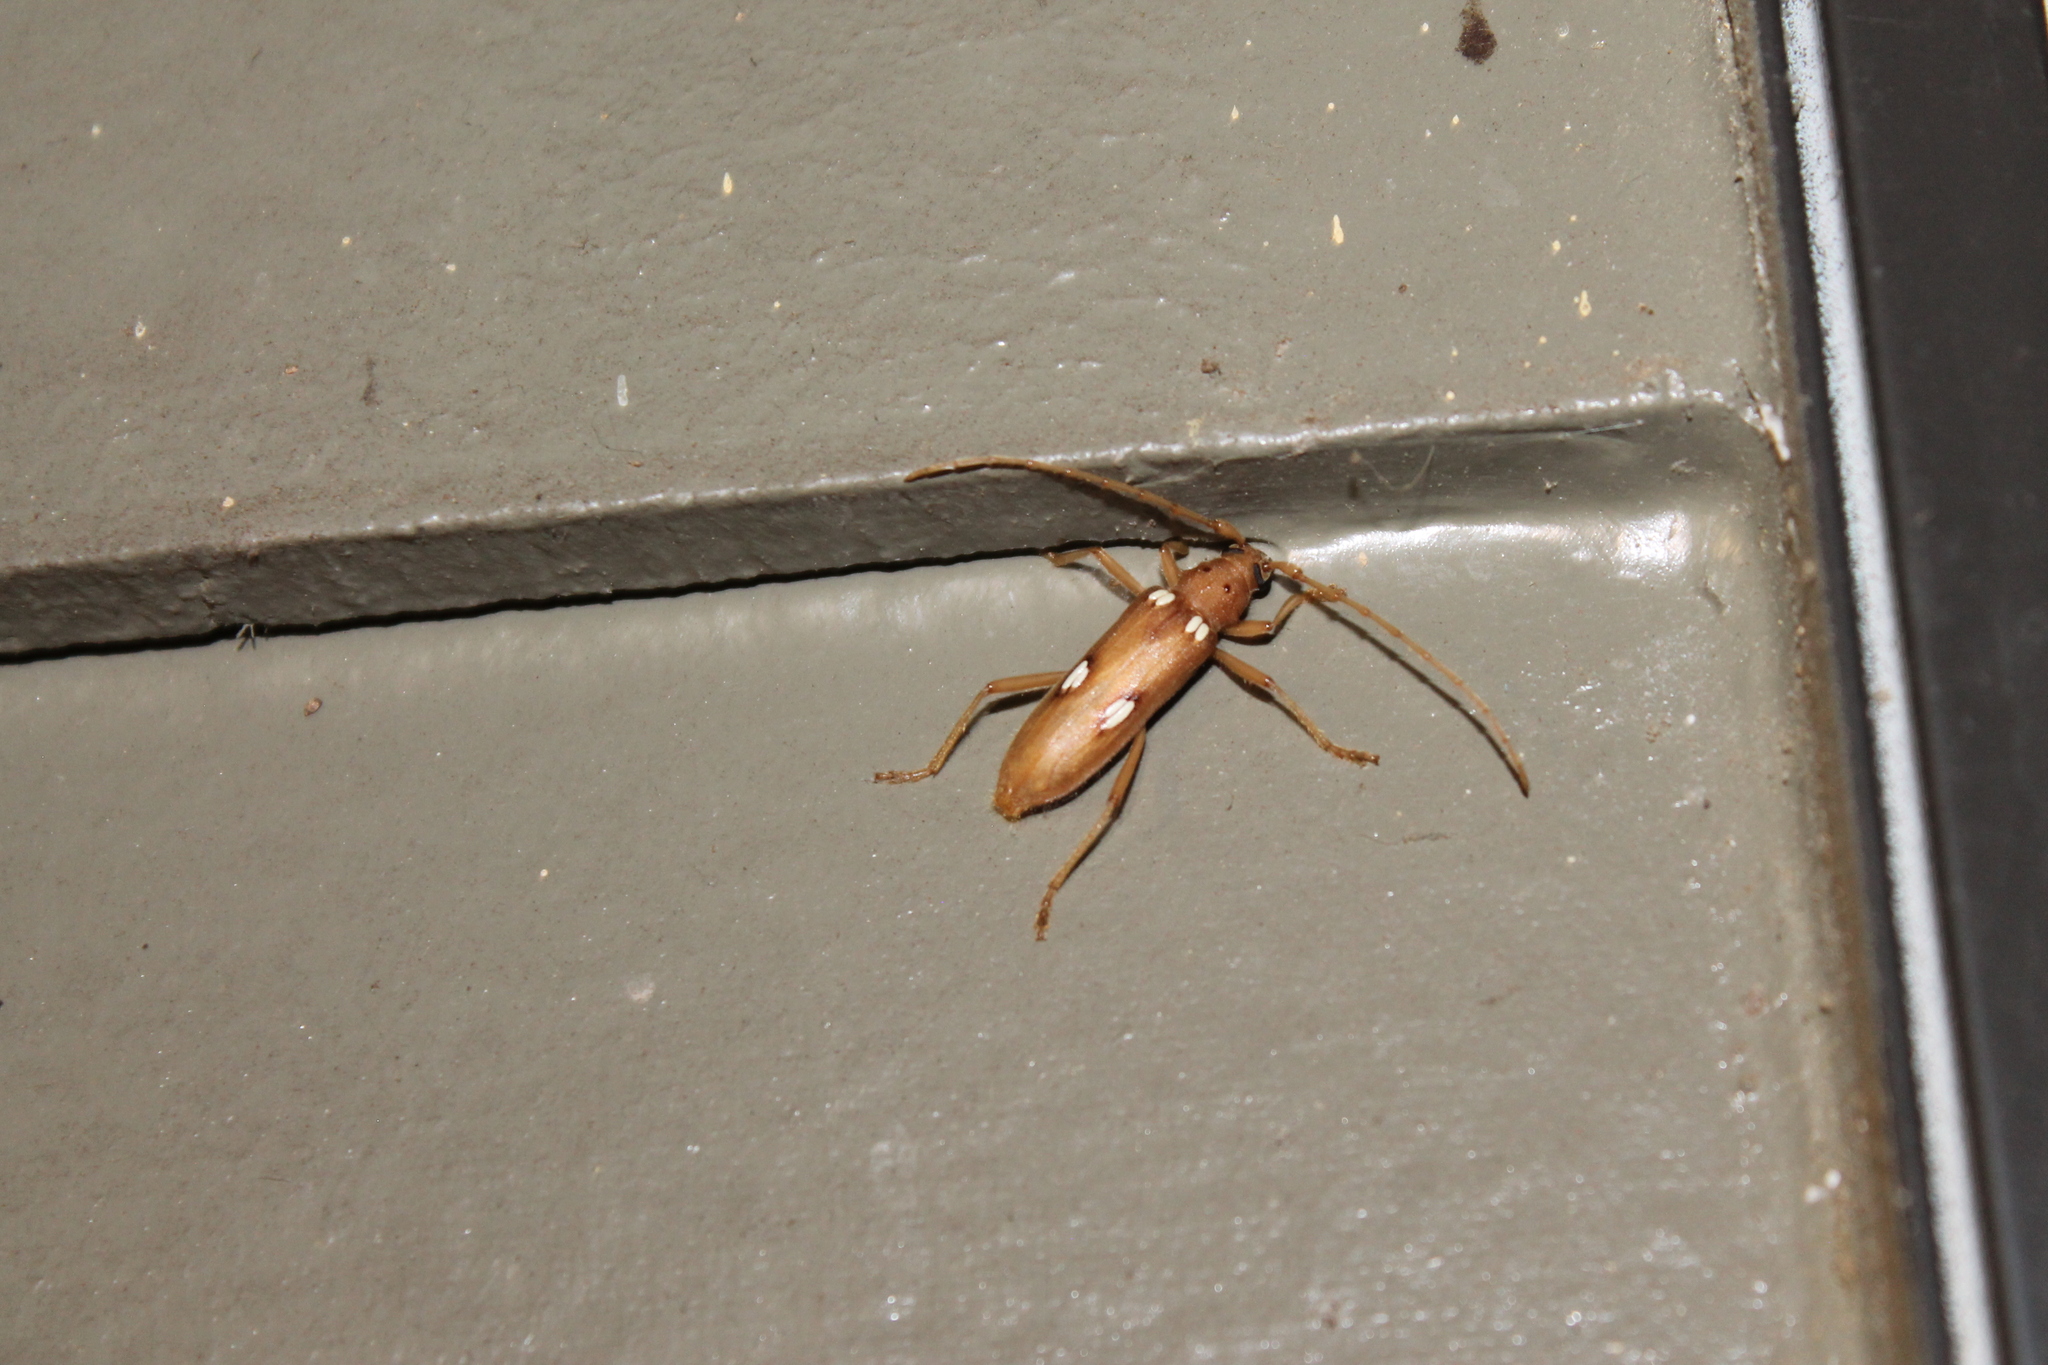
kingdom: Animalia
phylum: Arthropoda
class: Insecta
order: Coleoptera
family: Cerambycidae
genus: Eburia
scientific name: Eburia quadrigeminata
